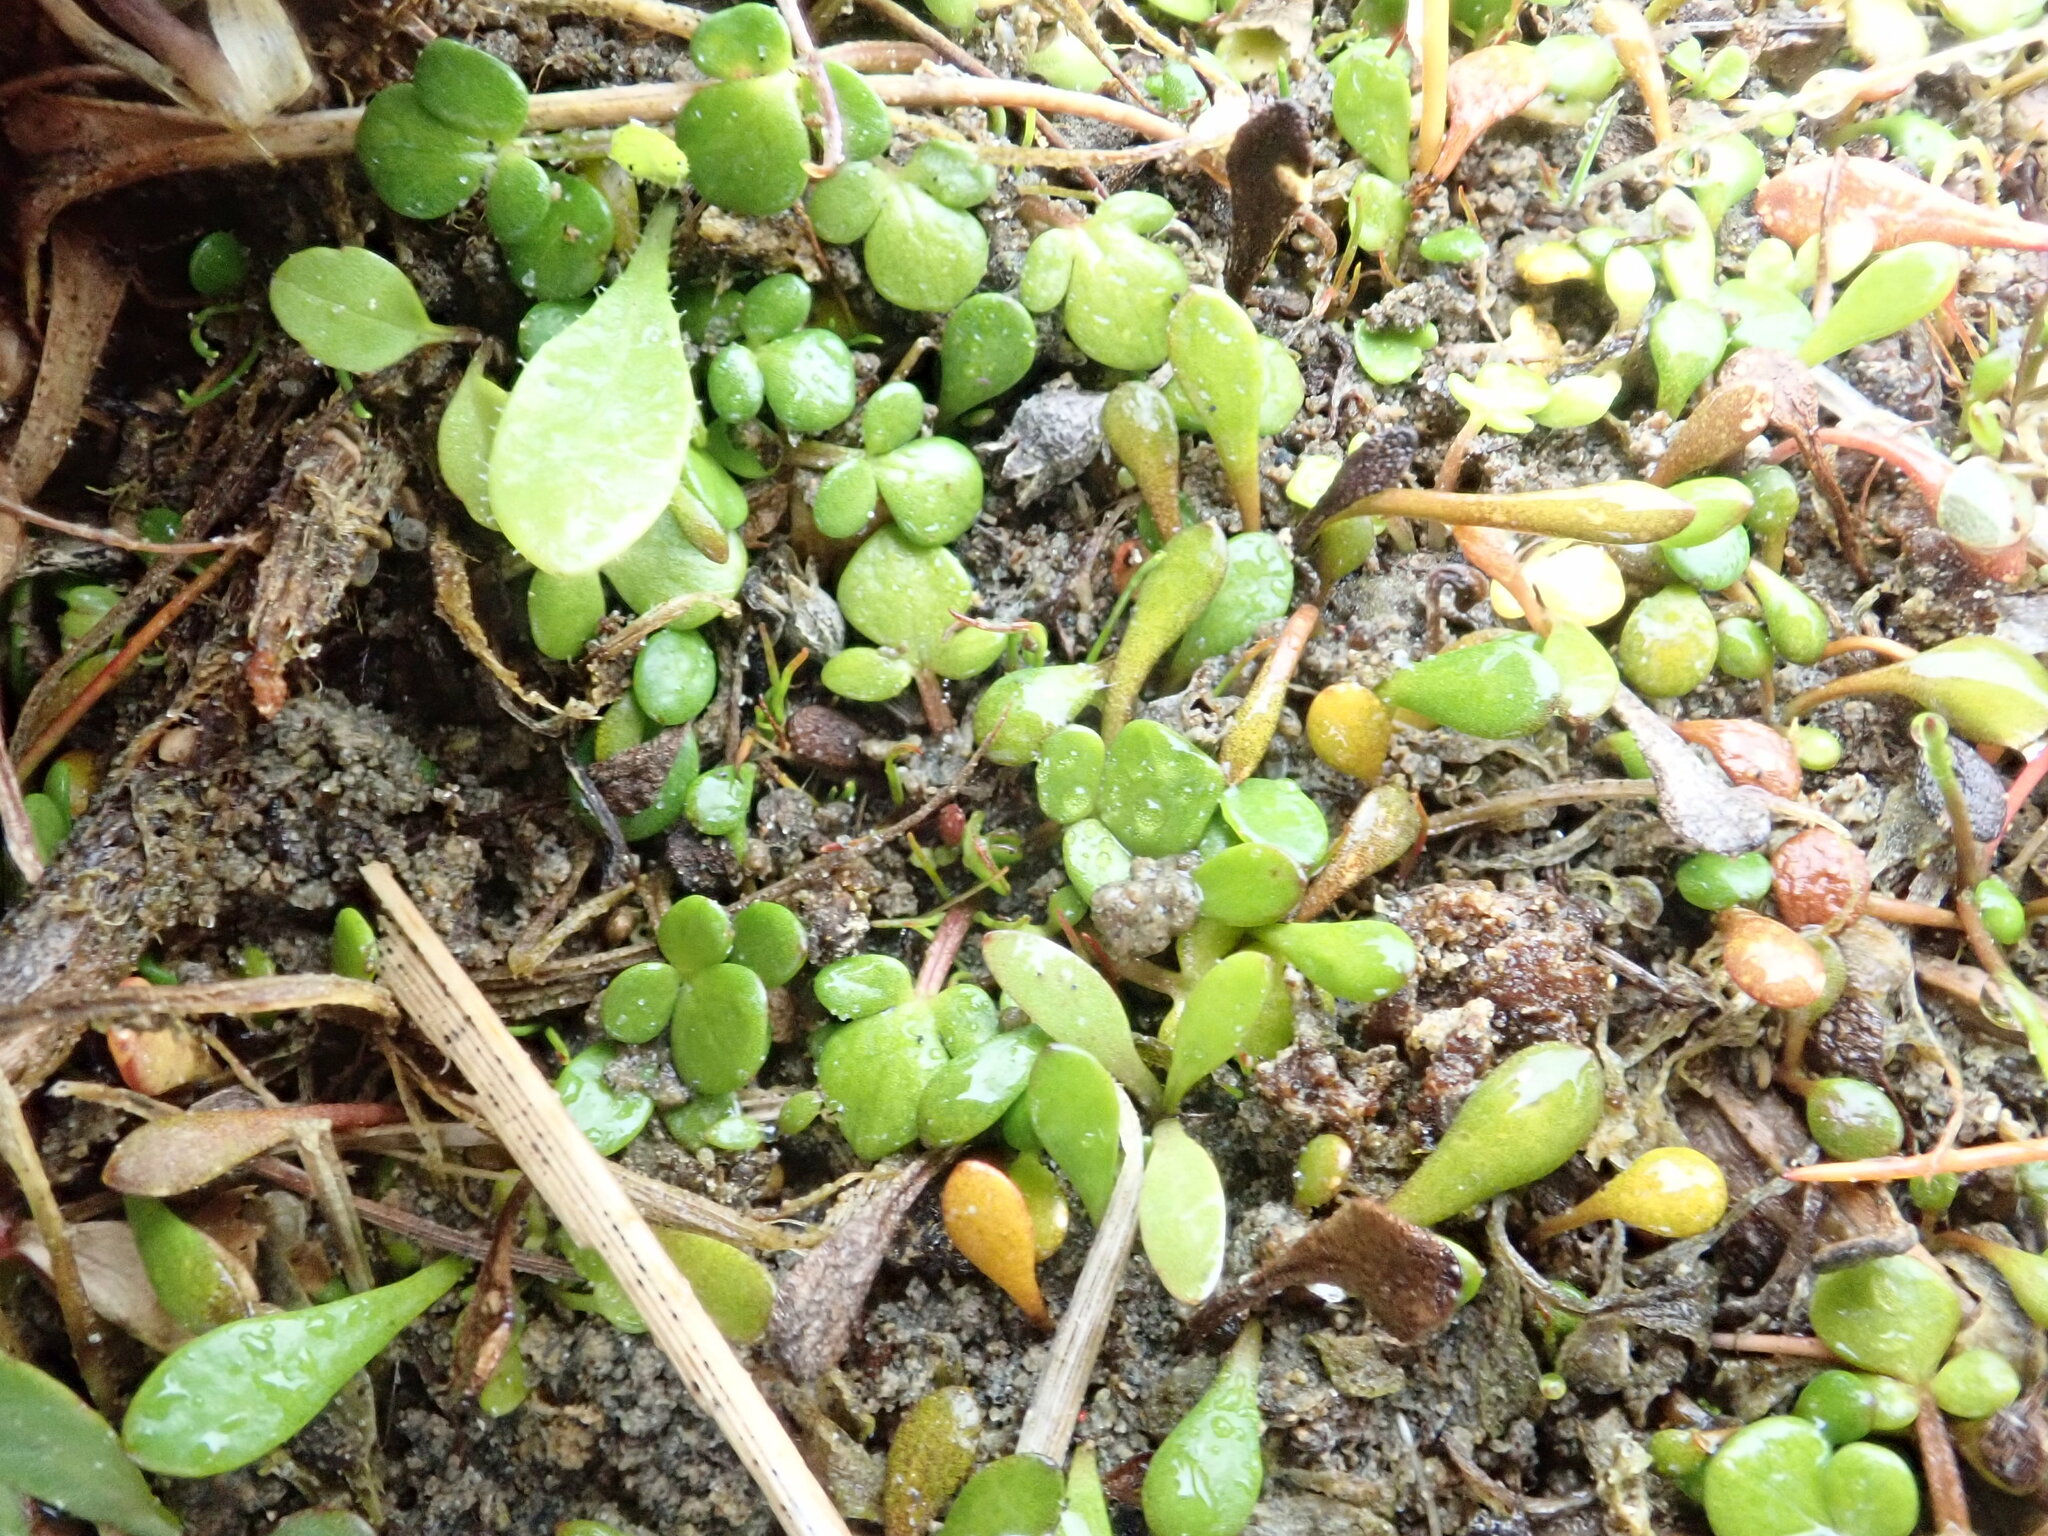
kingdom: Plantae
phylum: Tracheophyta
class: Magnoliopsida
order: Ranunculales
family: Ranunculaceae
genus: Ranunculus
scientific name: Ranunculus acaulis
